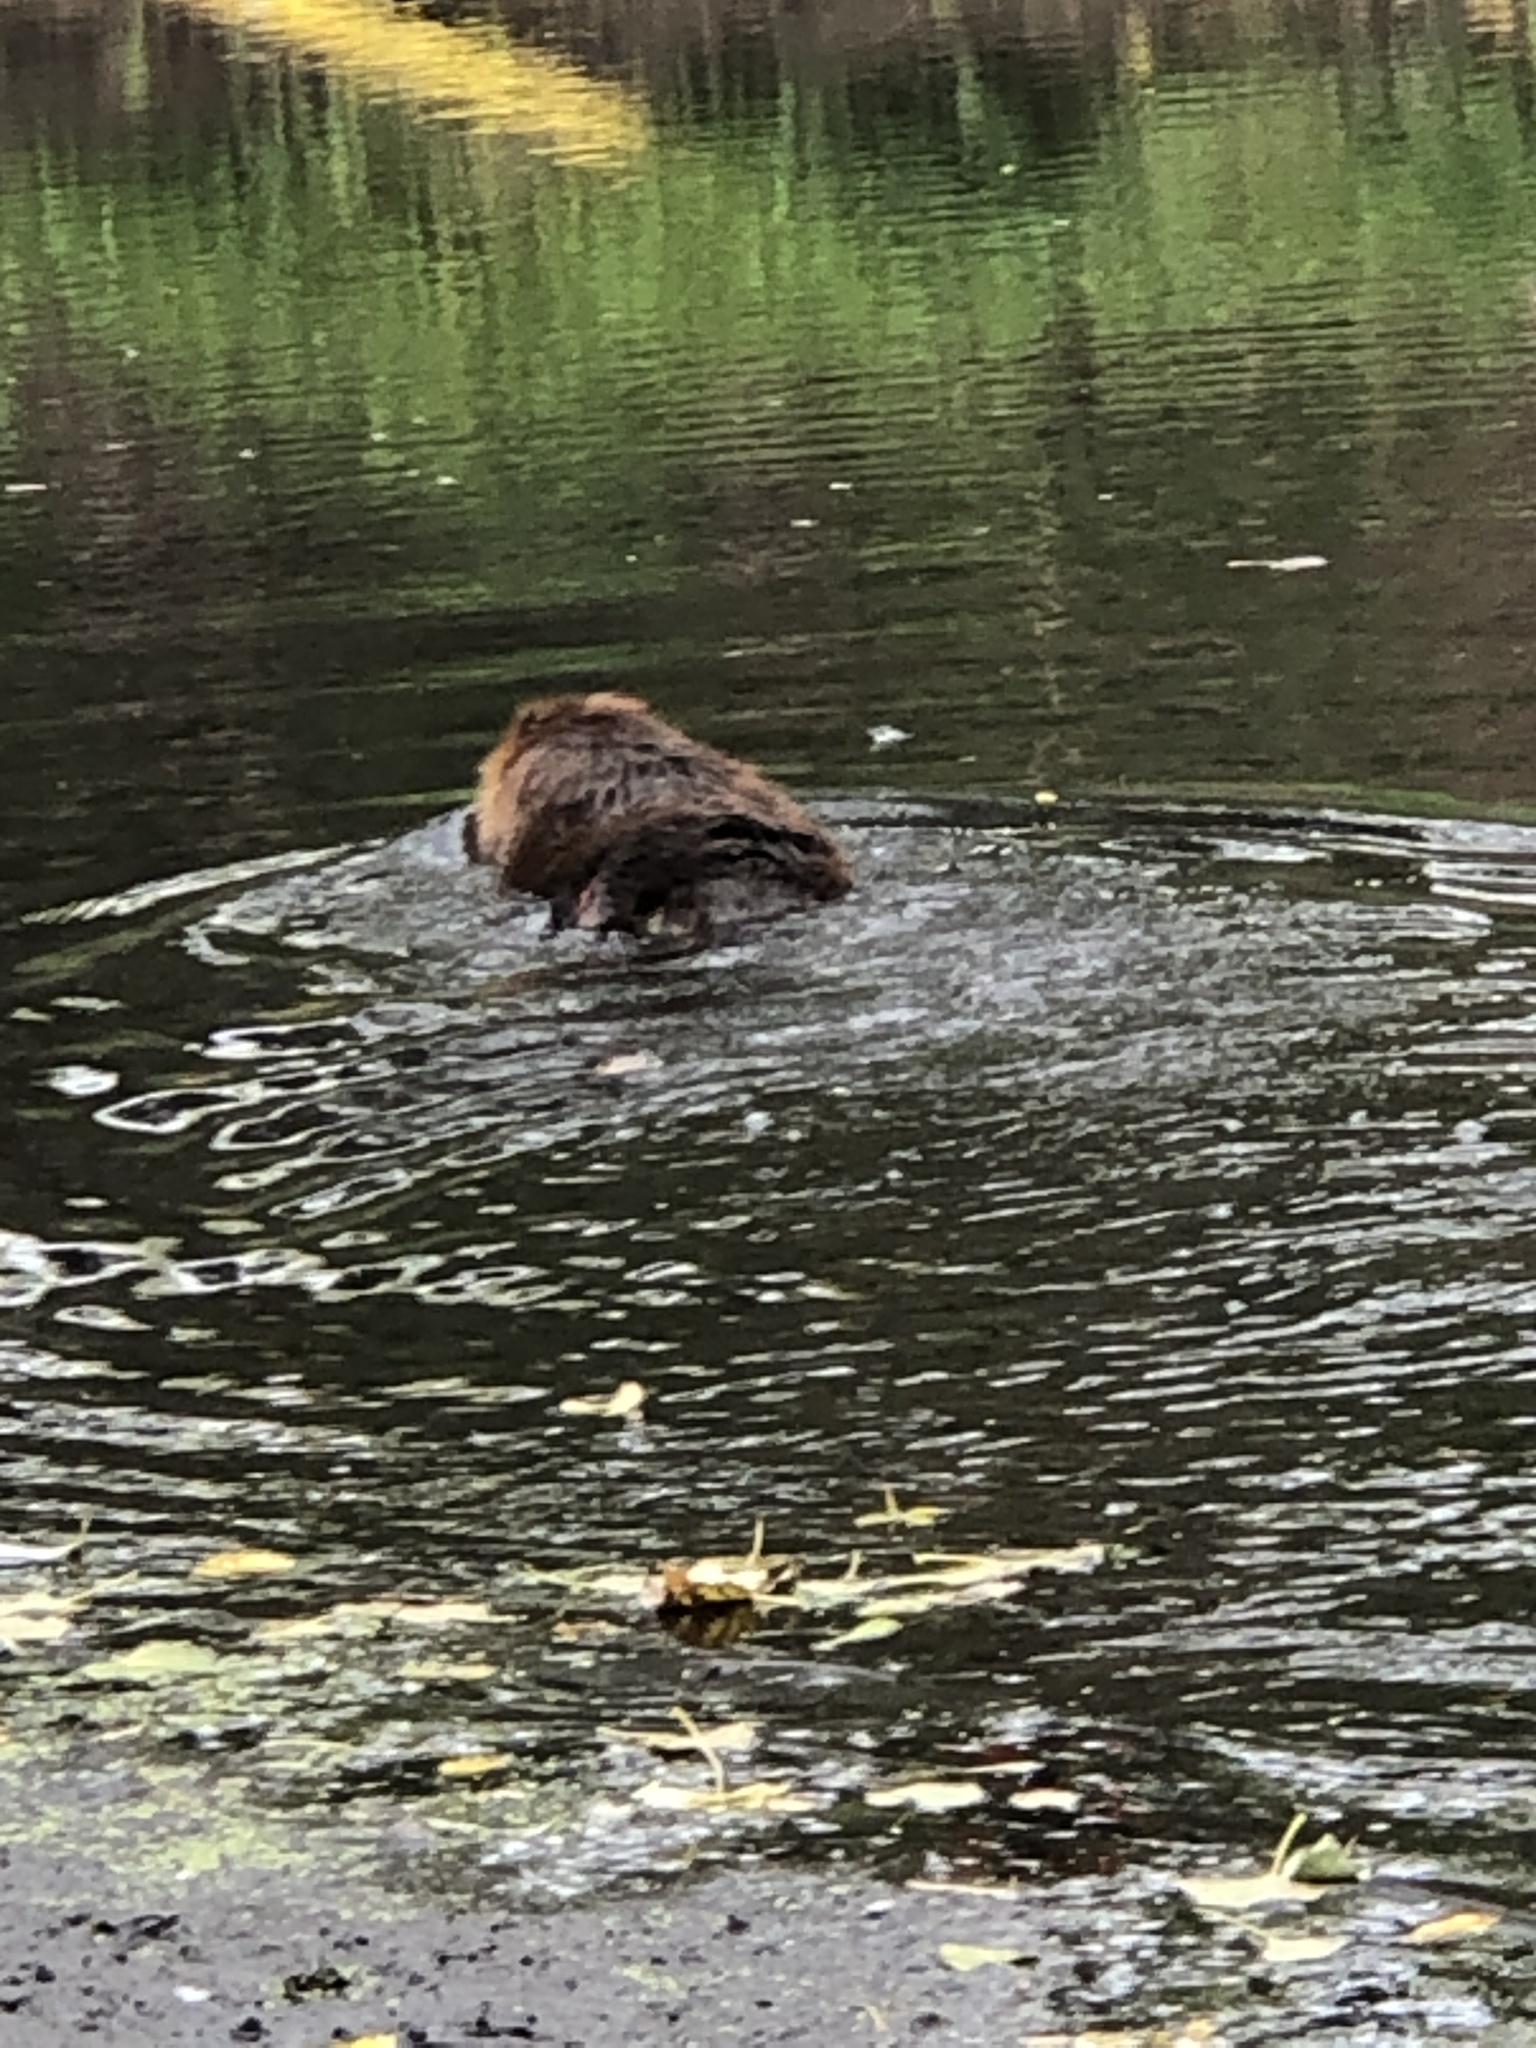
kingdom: Animalia
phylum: Chordata
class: Mammalia
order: Rodentia
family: Castoridae
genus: Castor
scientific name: Castor canadensis
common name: American beaver
